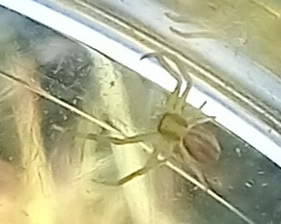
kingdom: Animalia
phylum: Arthropoda
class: Arachnida
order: Araneae
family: Thomisidae
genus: Runcinia
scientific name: Runcinia grammica
